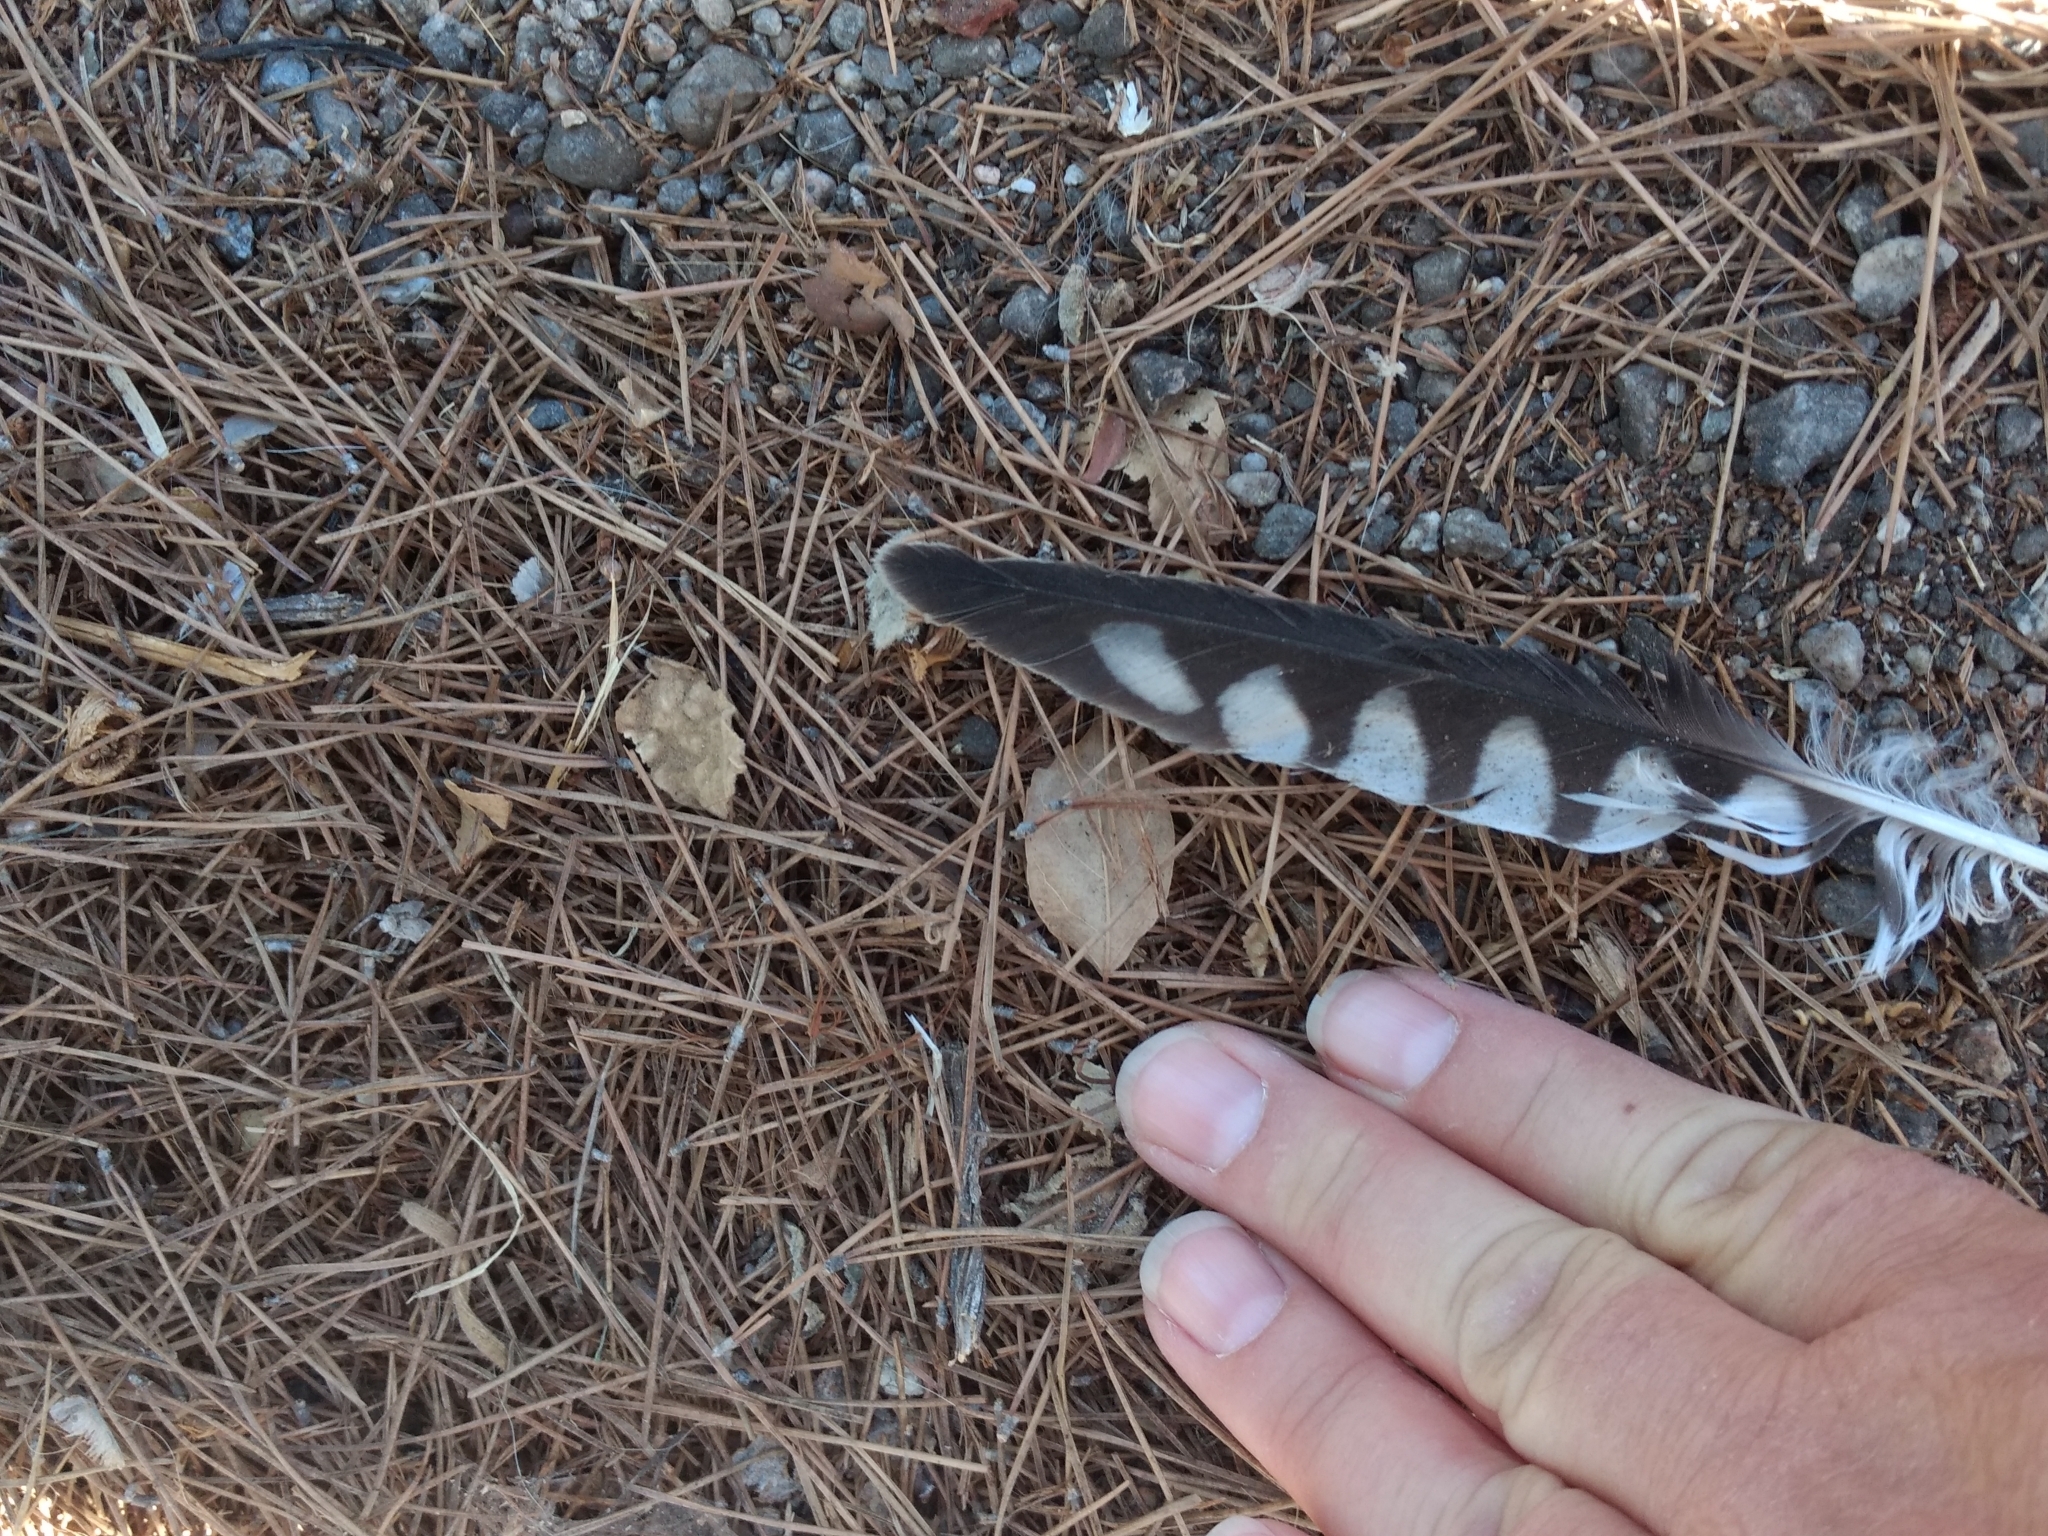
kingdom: Animalia
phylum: Chordata
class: Aves
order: Falconiformes
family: Falconidae
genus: Falco
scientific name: Falco sparverius
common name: American kestrel
